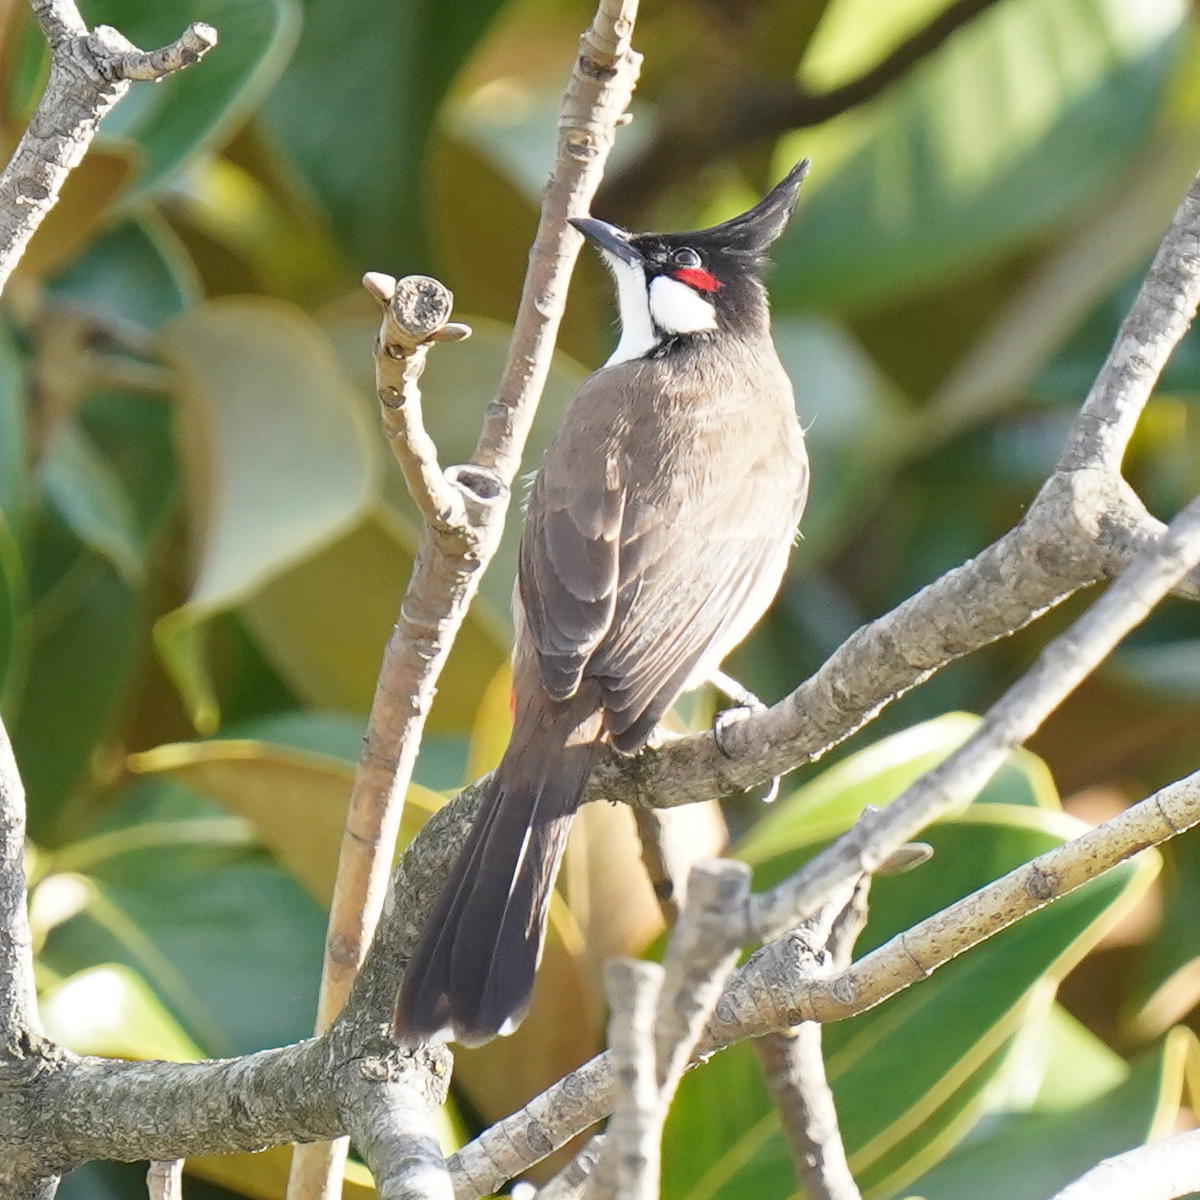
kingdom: Animalia
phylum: Chordata
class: Aves
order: Passeriformes
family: Pycnonotidae
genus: Pycnonotus
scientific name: Pycnonotus jocosus
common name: Red-whiskered bulbul
